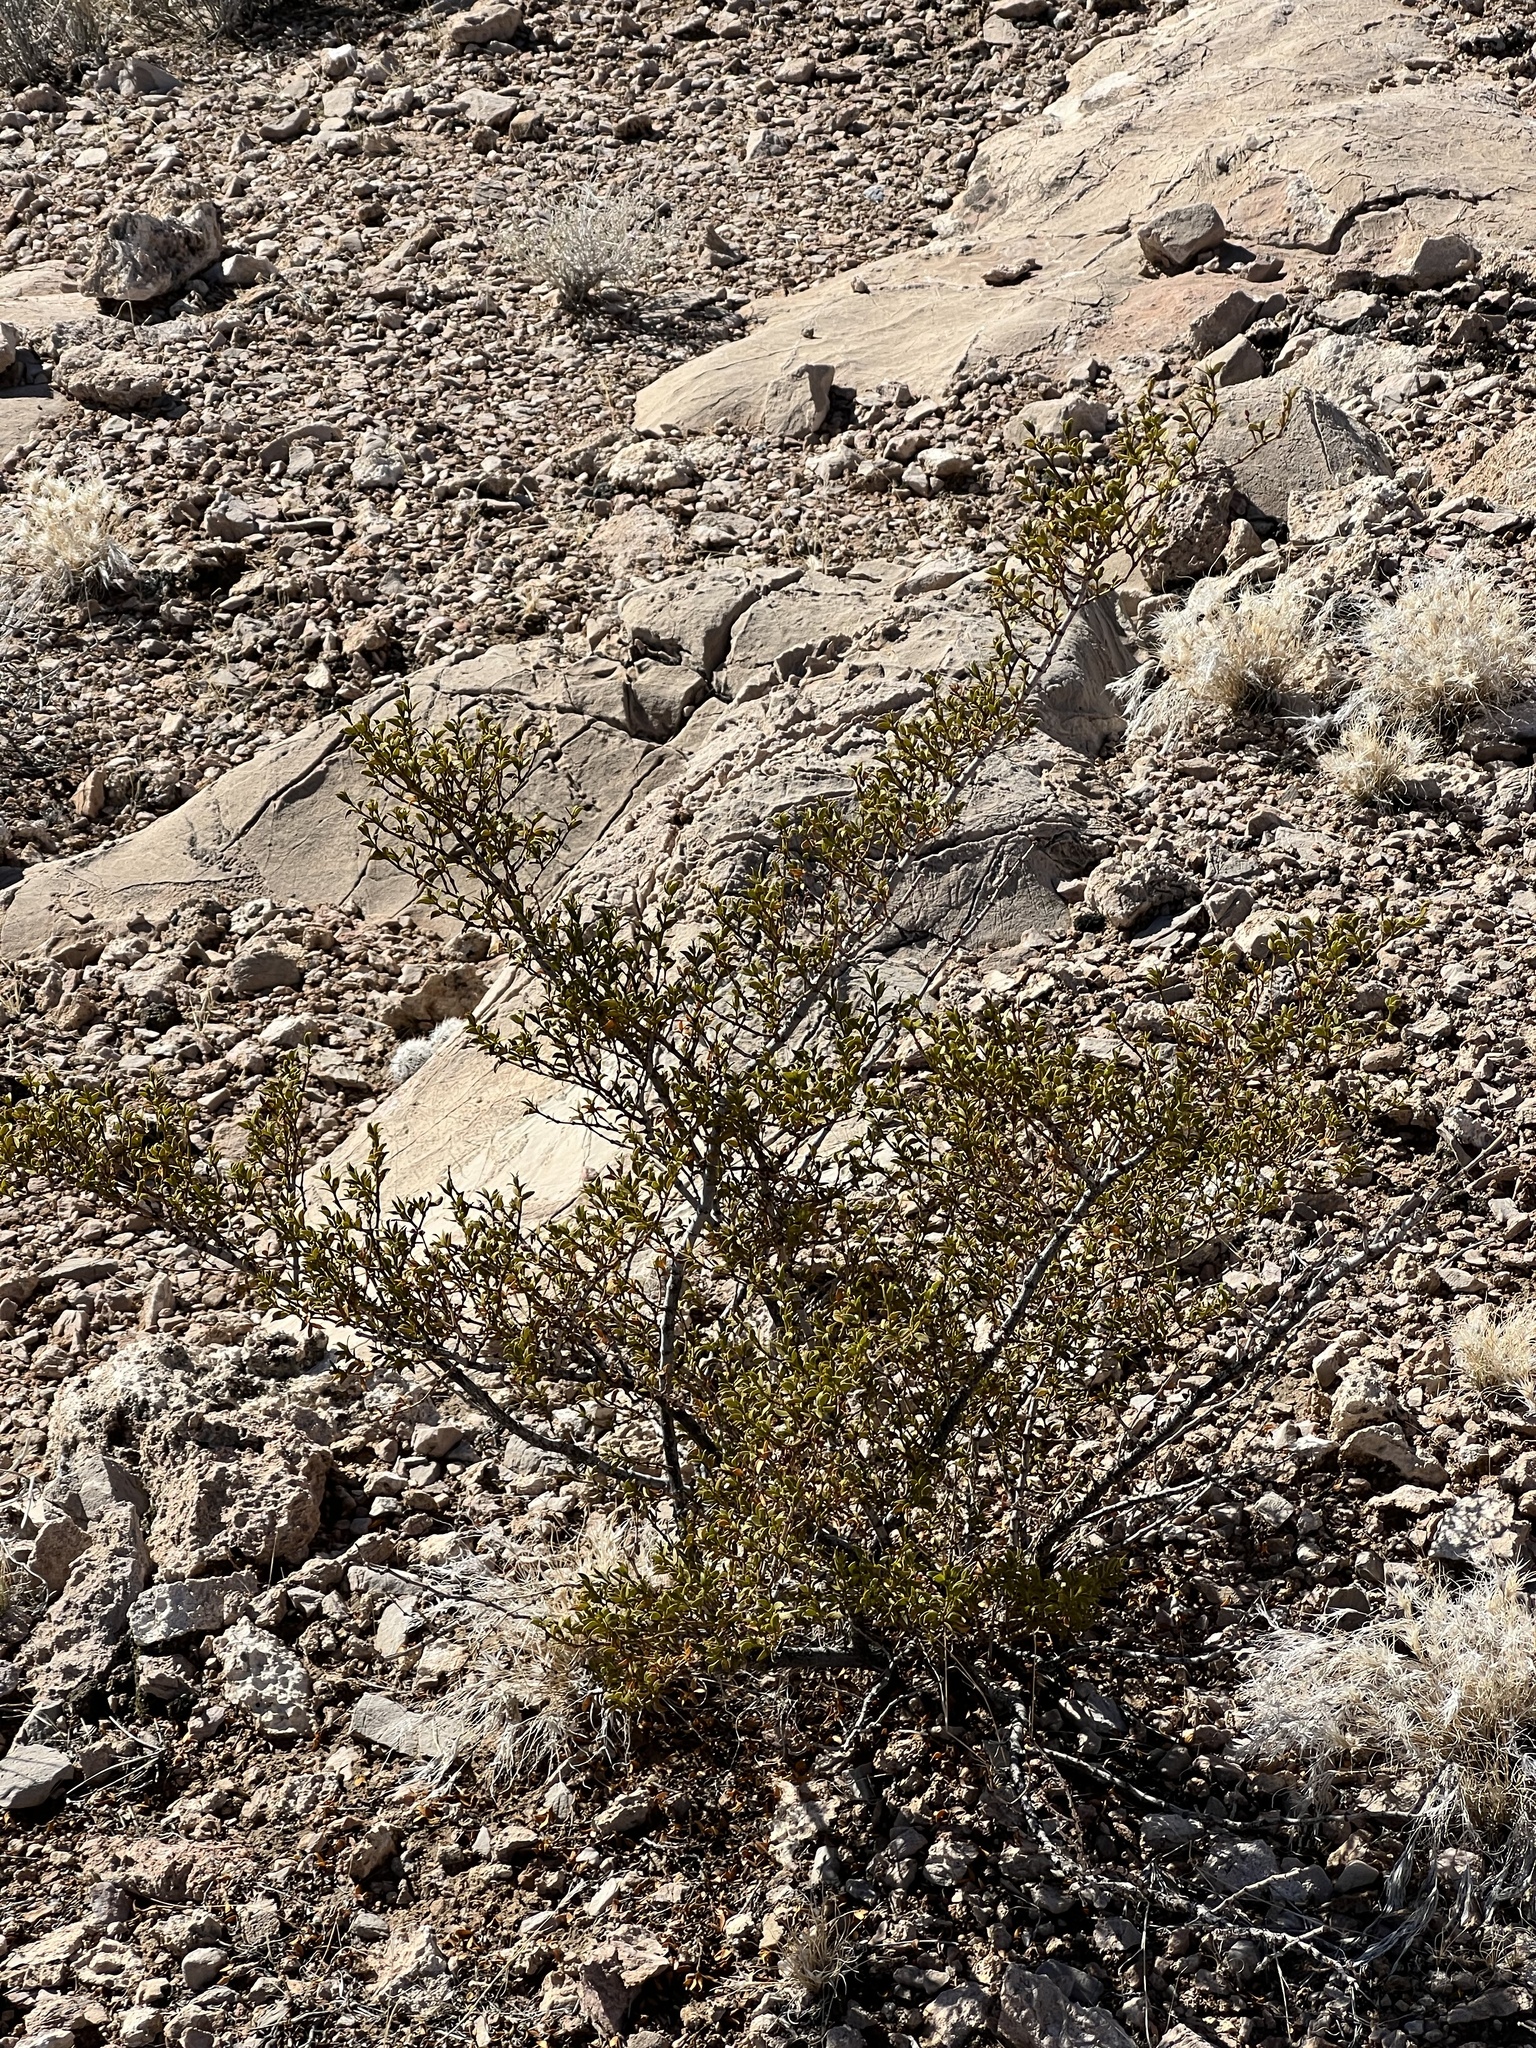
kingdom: Plantae
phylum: Tracheophyta
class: Magnoliopsida
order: Zygophyllales
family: Zygophyllaceae
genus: Larrea
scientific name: Larrea tridentata
